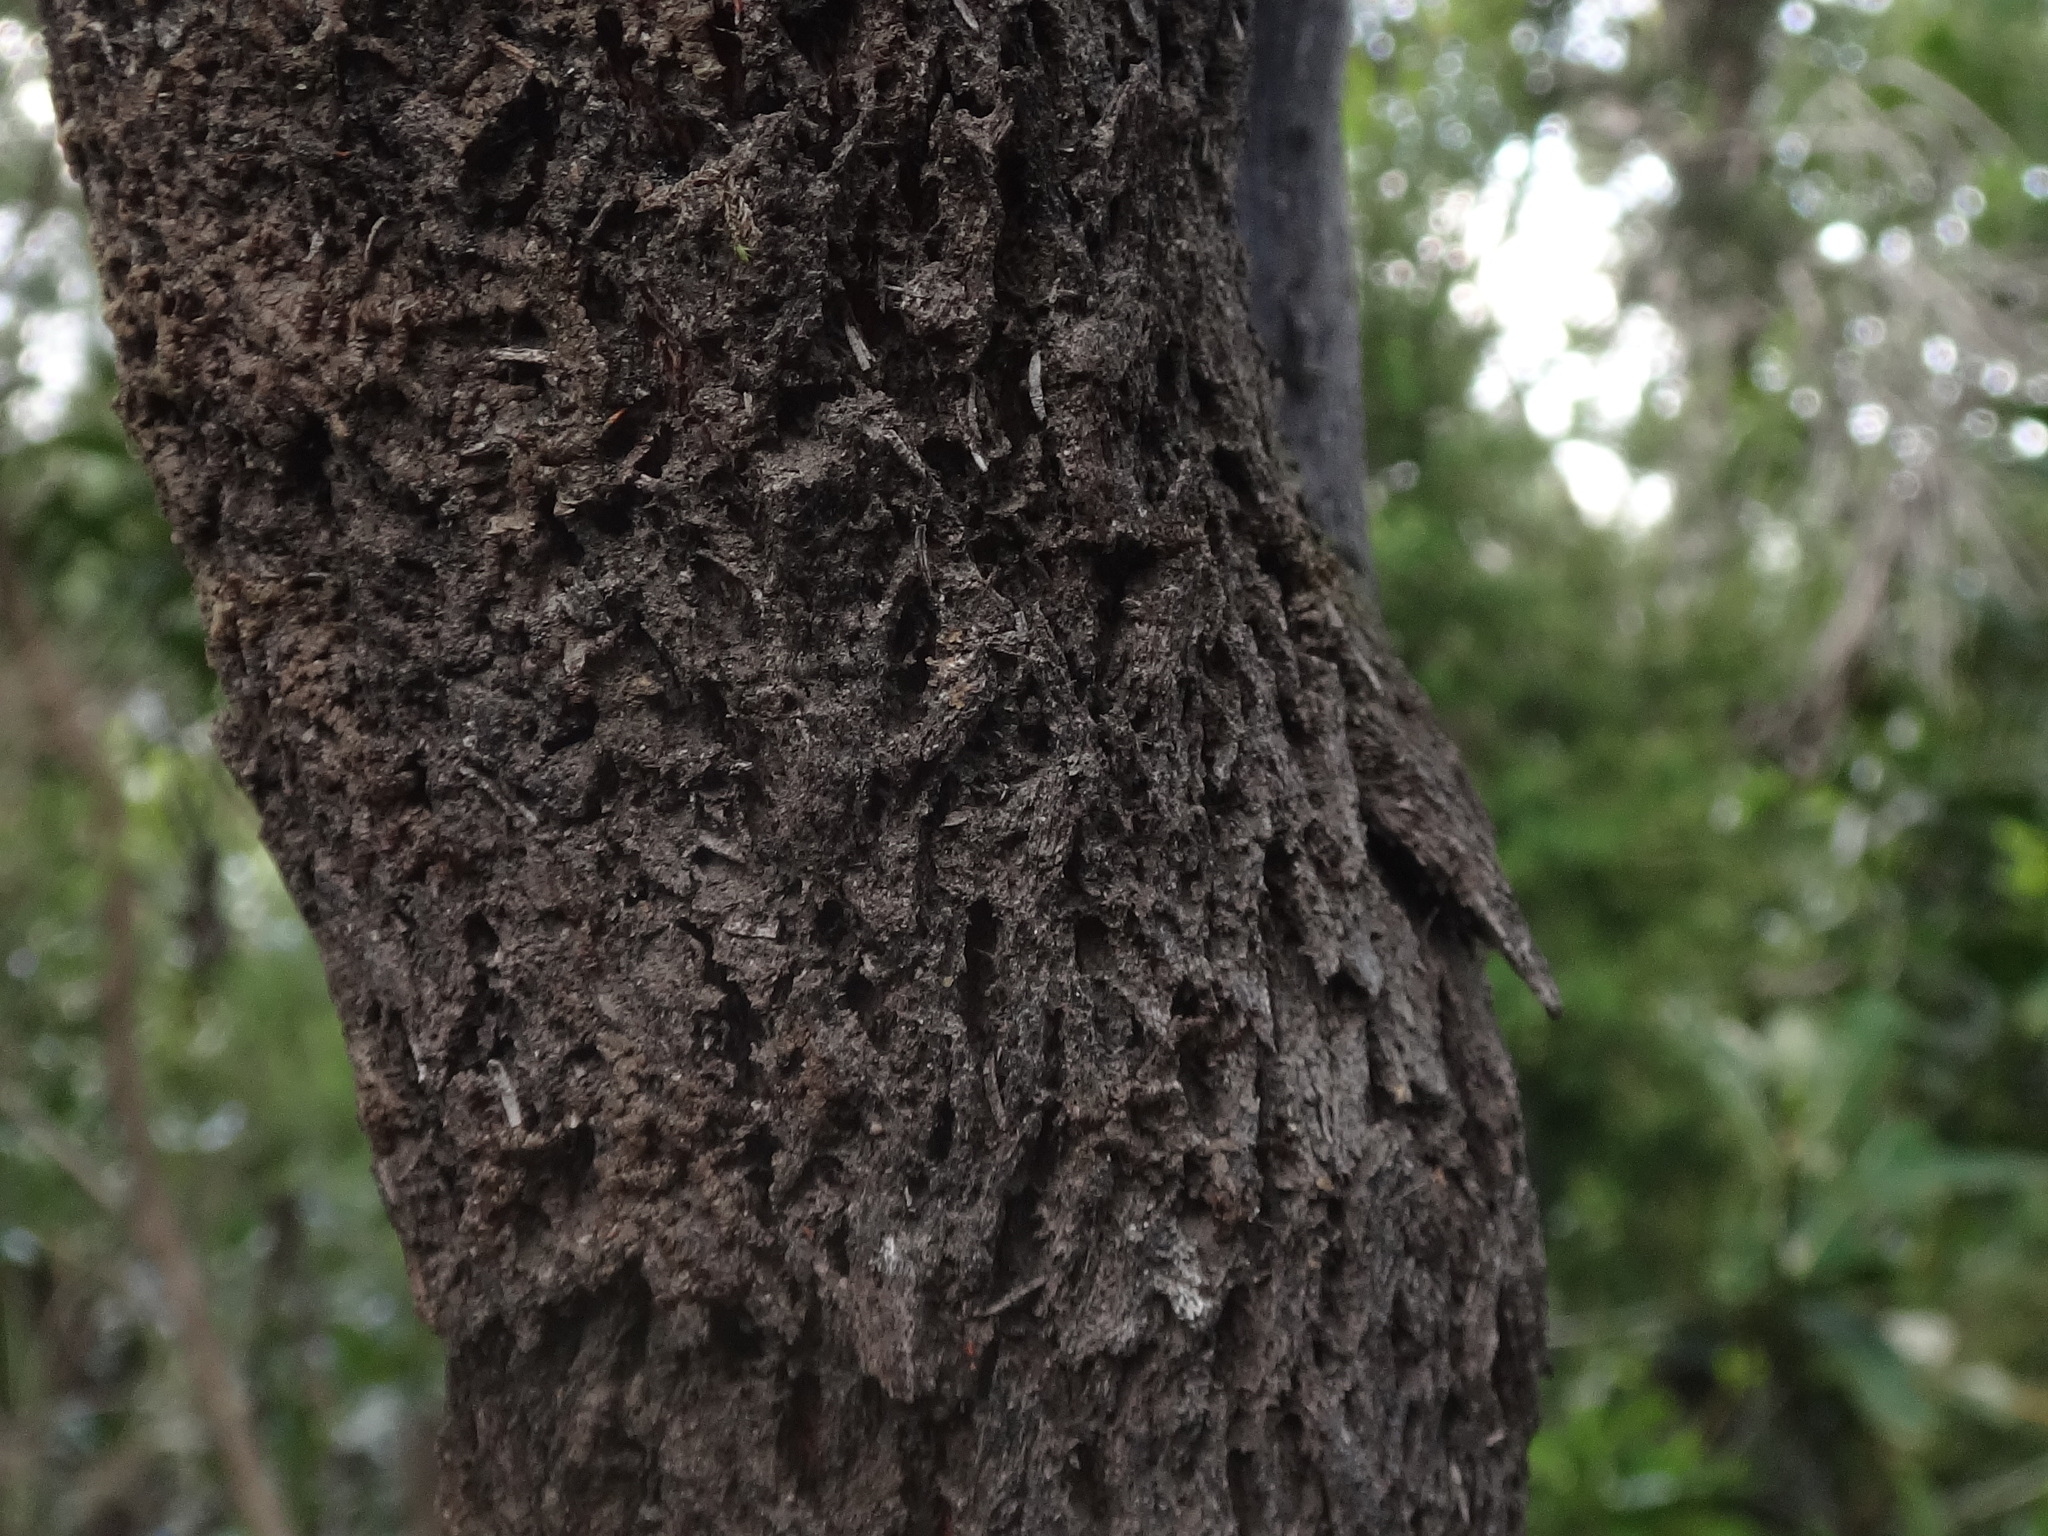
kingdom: Plantae
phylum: Tracheophyta
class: Magnoliopsida
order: Ericales
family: Ericaceae
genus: Erica
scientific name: Erica canariensis
